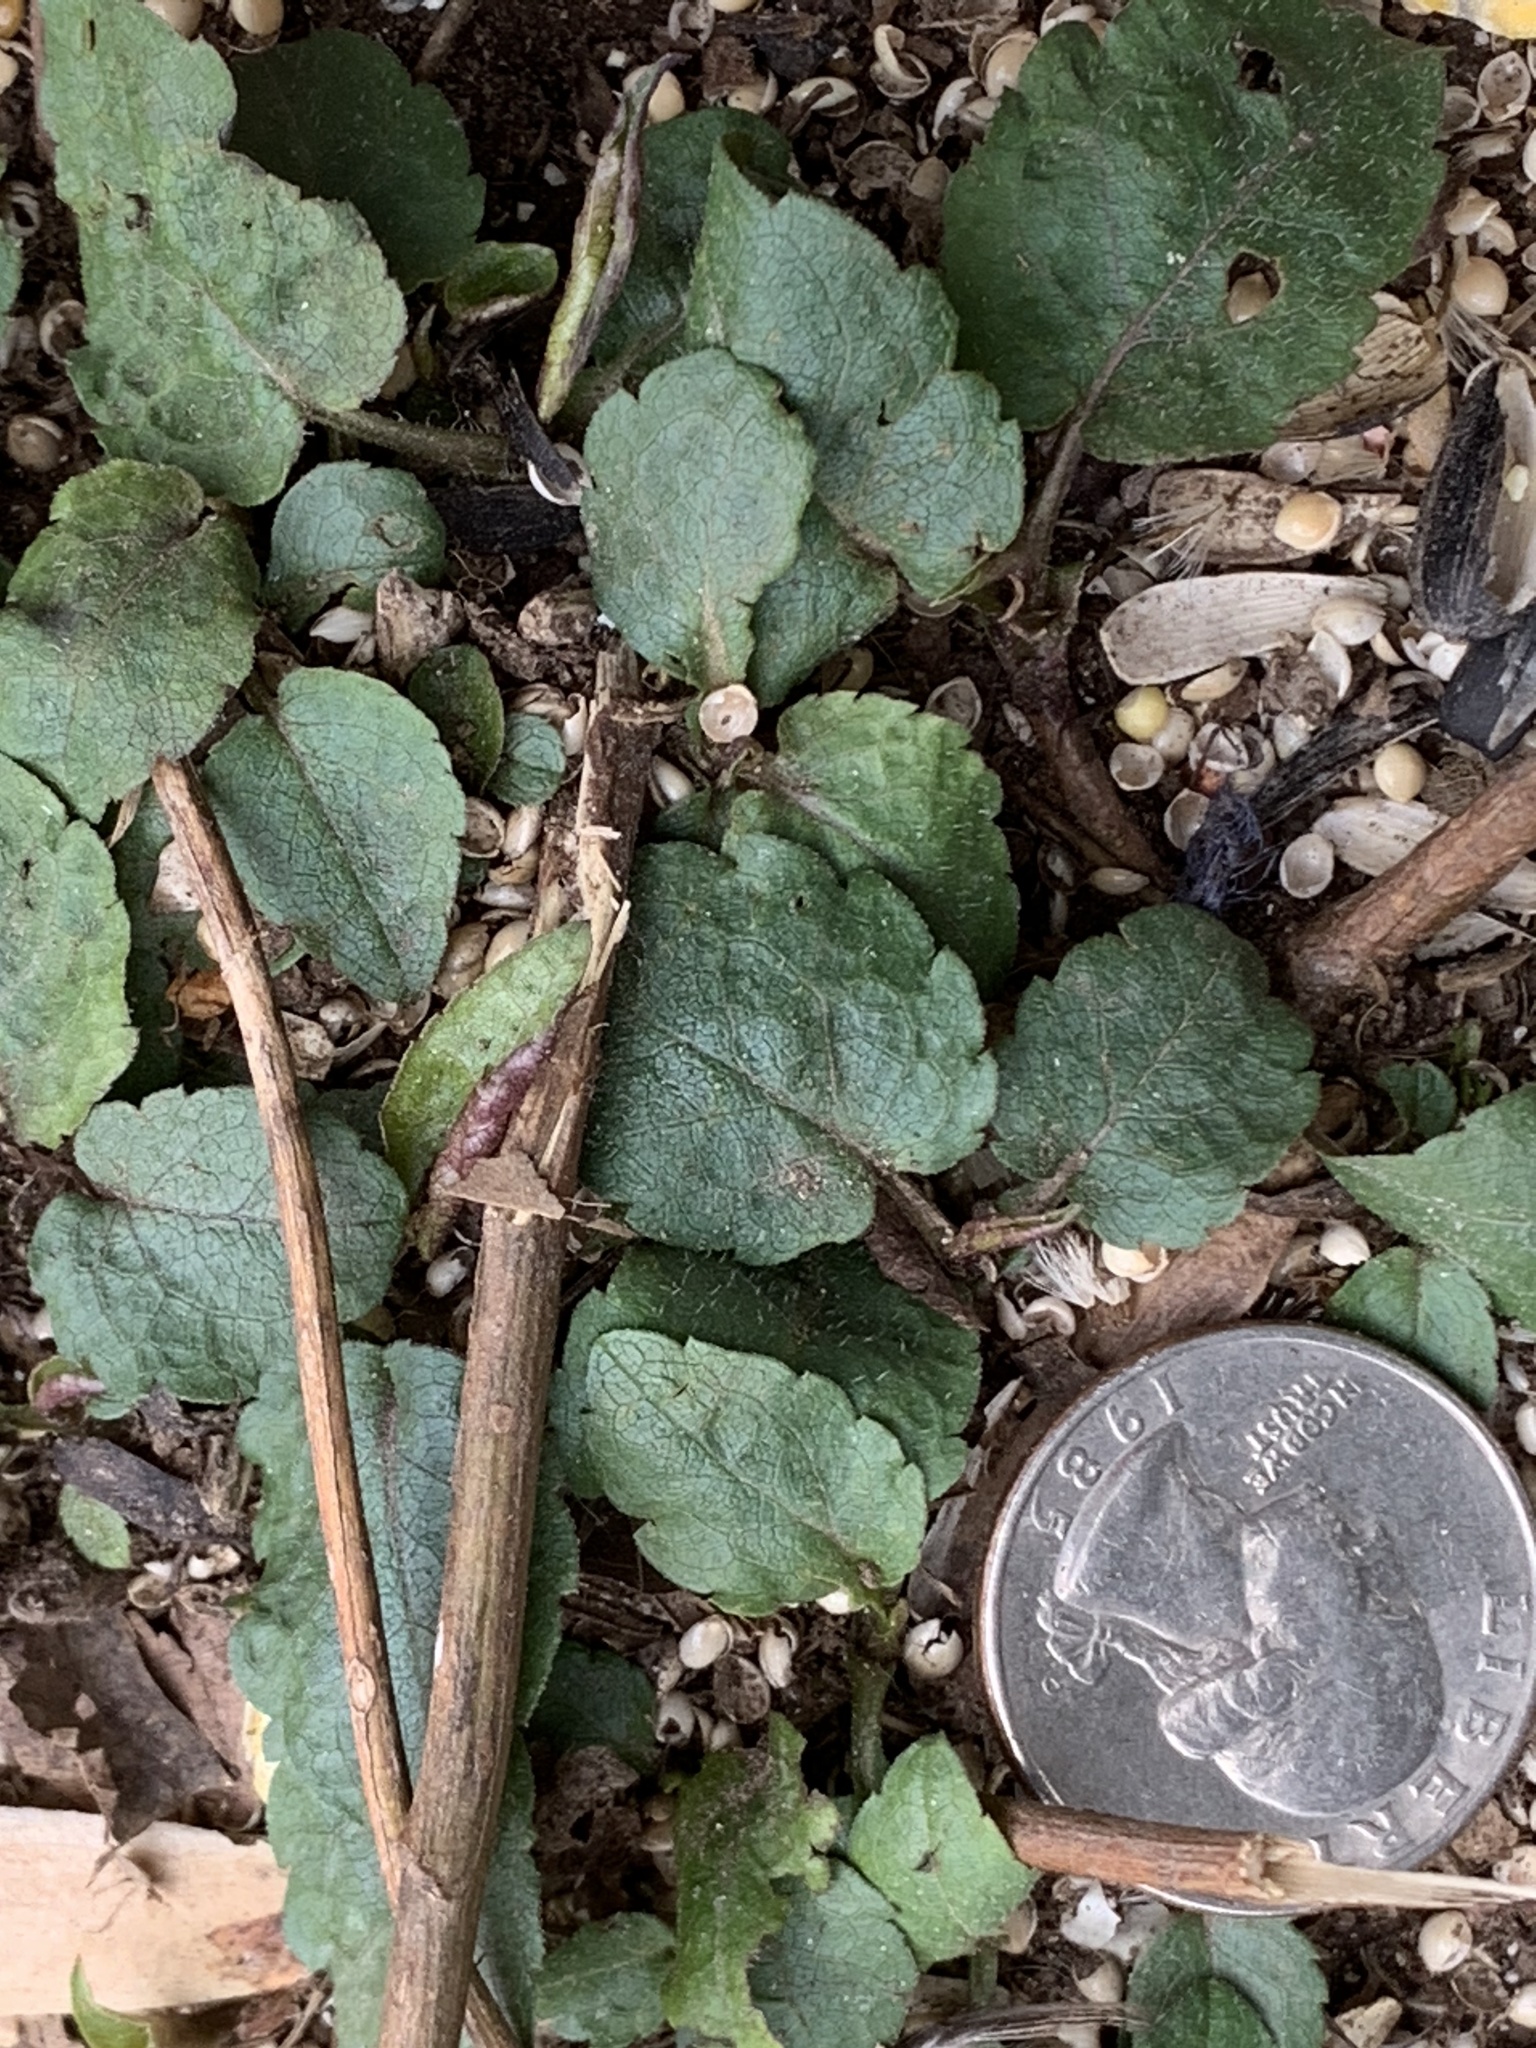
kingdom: Plantae
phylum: Tracheophyta
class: Magnoliopsida
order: Asterales
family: Asteraceae
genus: Eurybia
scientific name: Eurybia divaricata
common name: White wood aster
